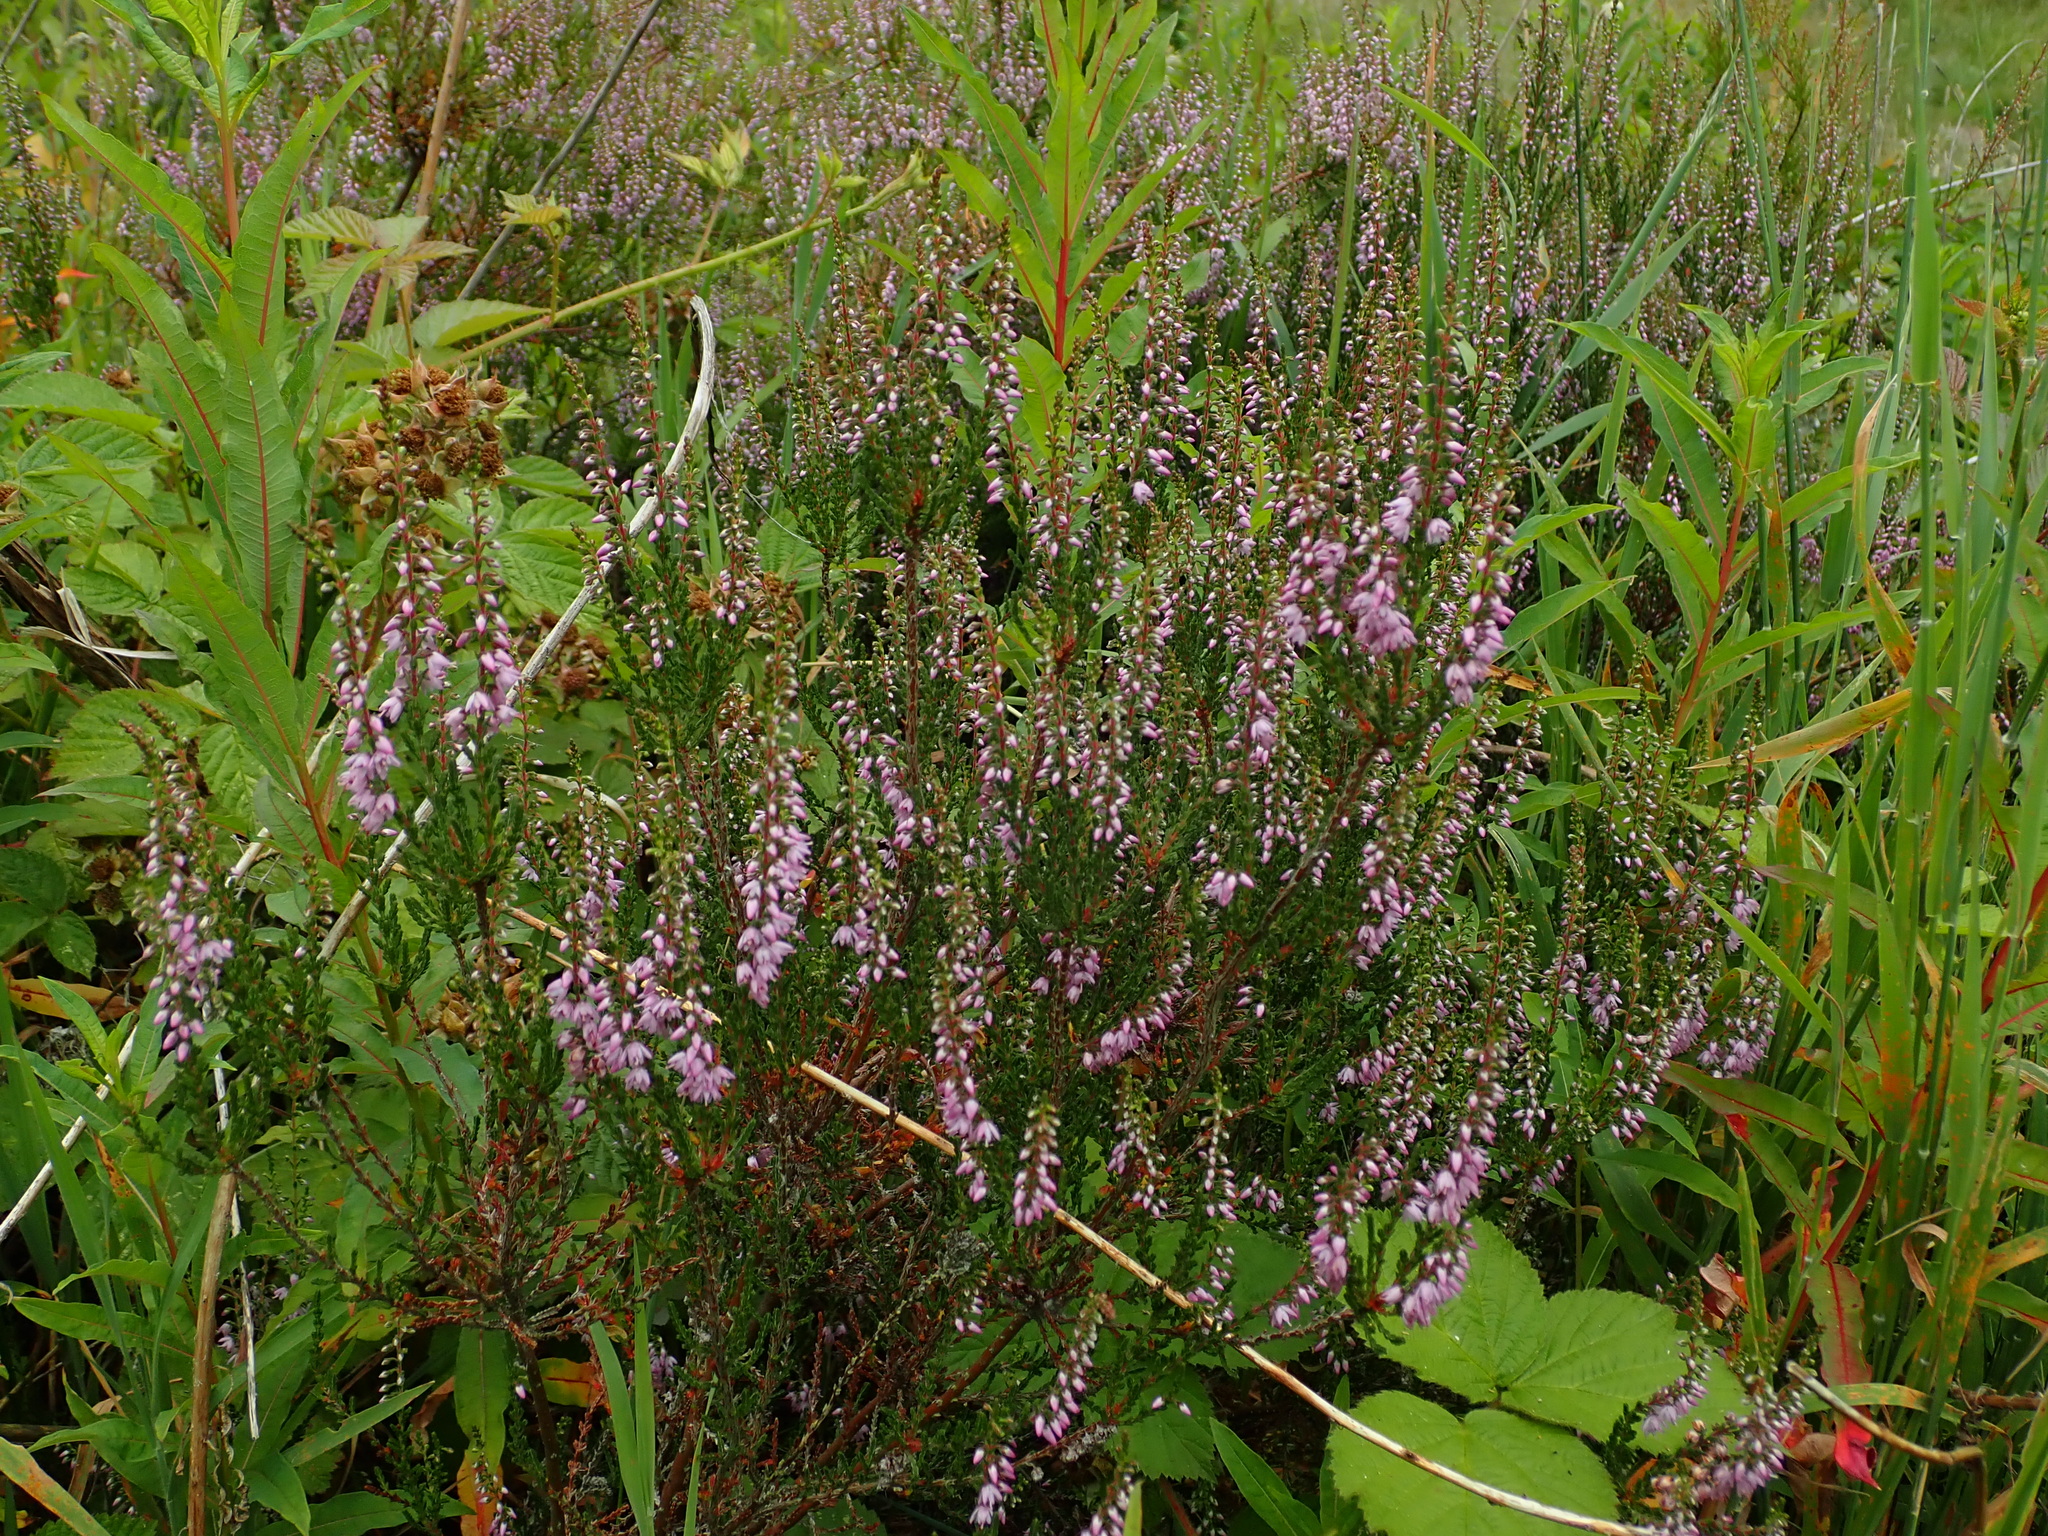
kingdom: Plantae
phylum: Tracheophyta
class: Magnoliopsida
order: Ericales
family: Ericaceae
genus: Calluna
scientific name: Calluna vulgaris
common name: Heather
